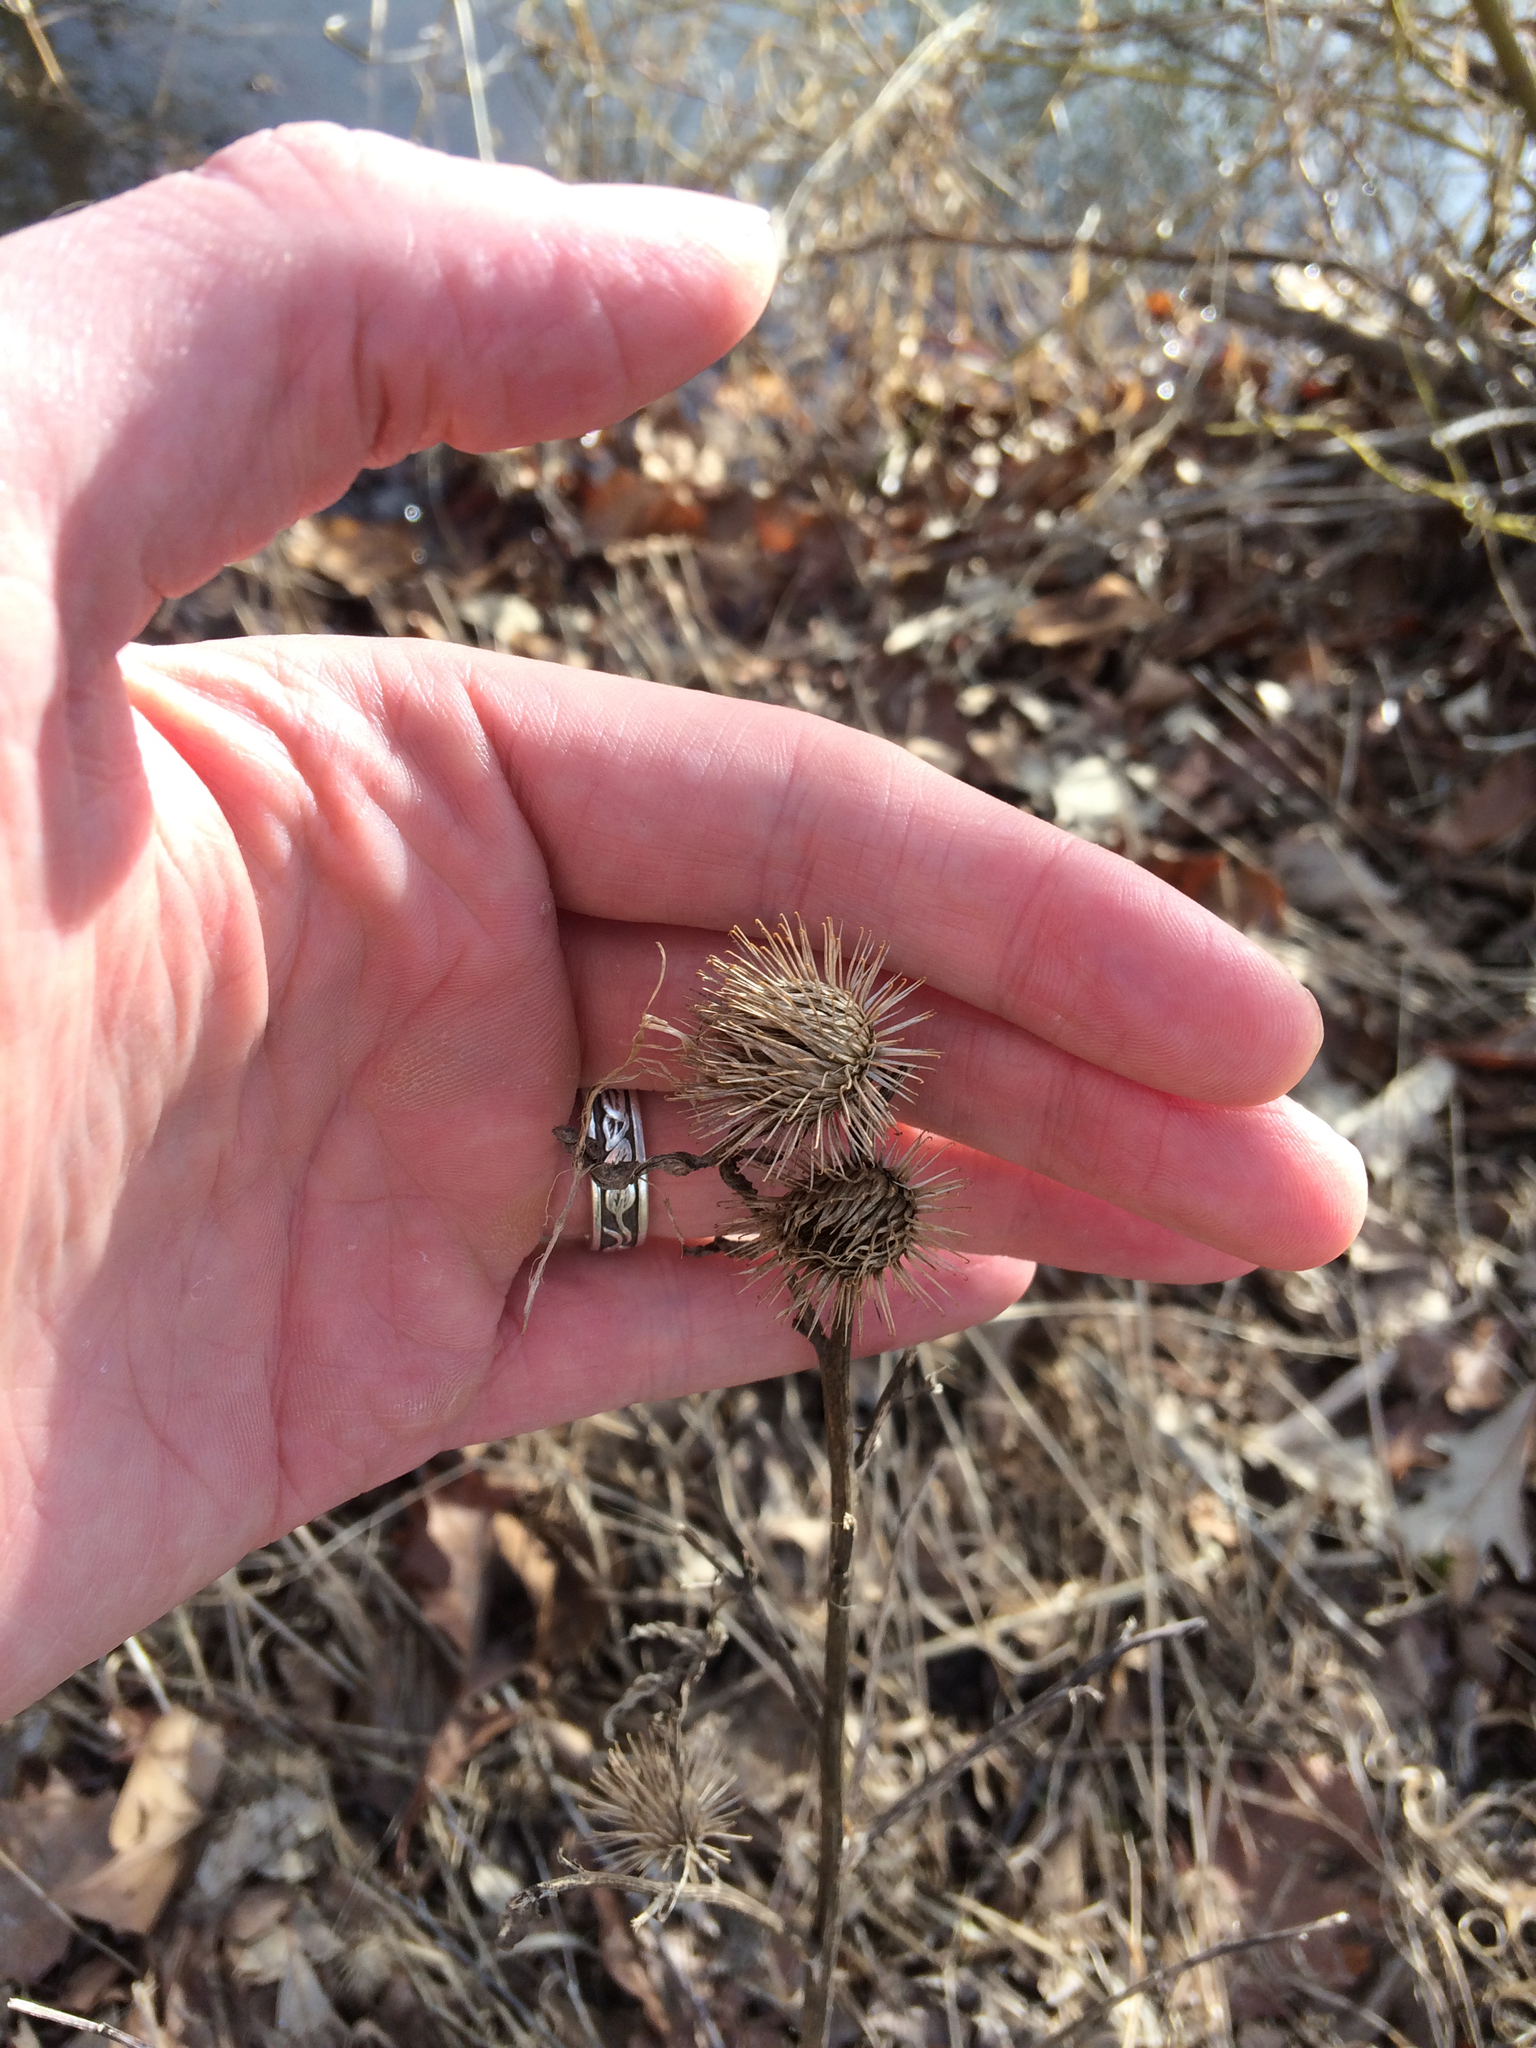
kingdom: Plantae
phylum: Tracheophyta
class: Magnoliopsida
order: Asterales
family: Asteraceae
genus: Arctium
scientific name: Arctium minus
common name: Lesser burdock
